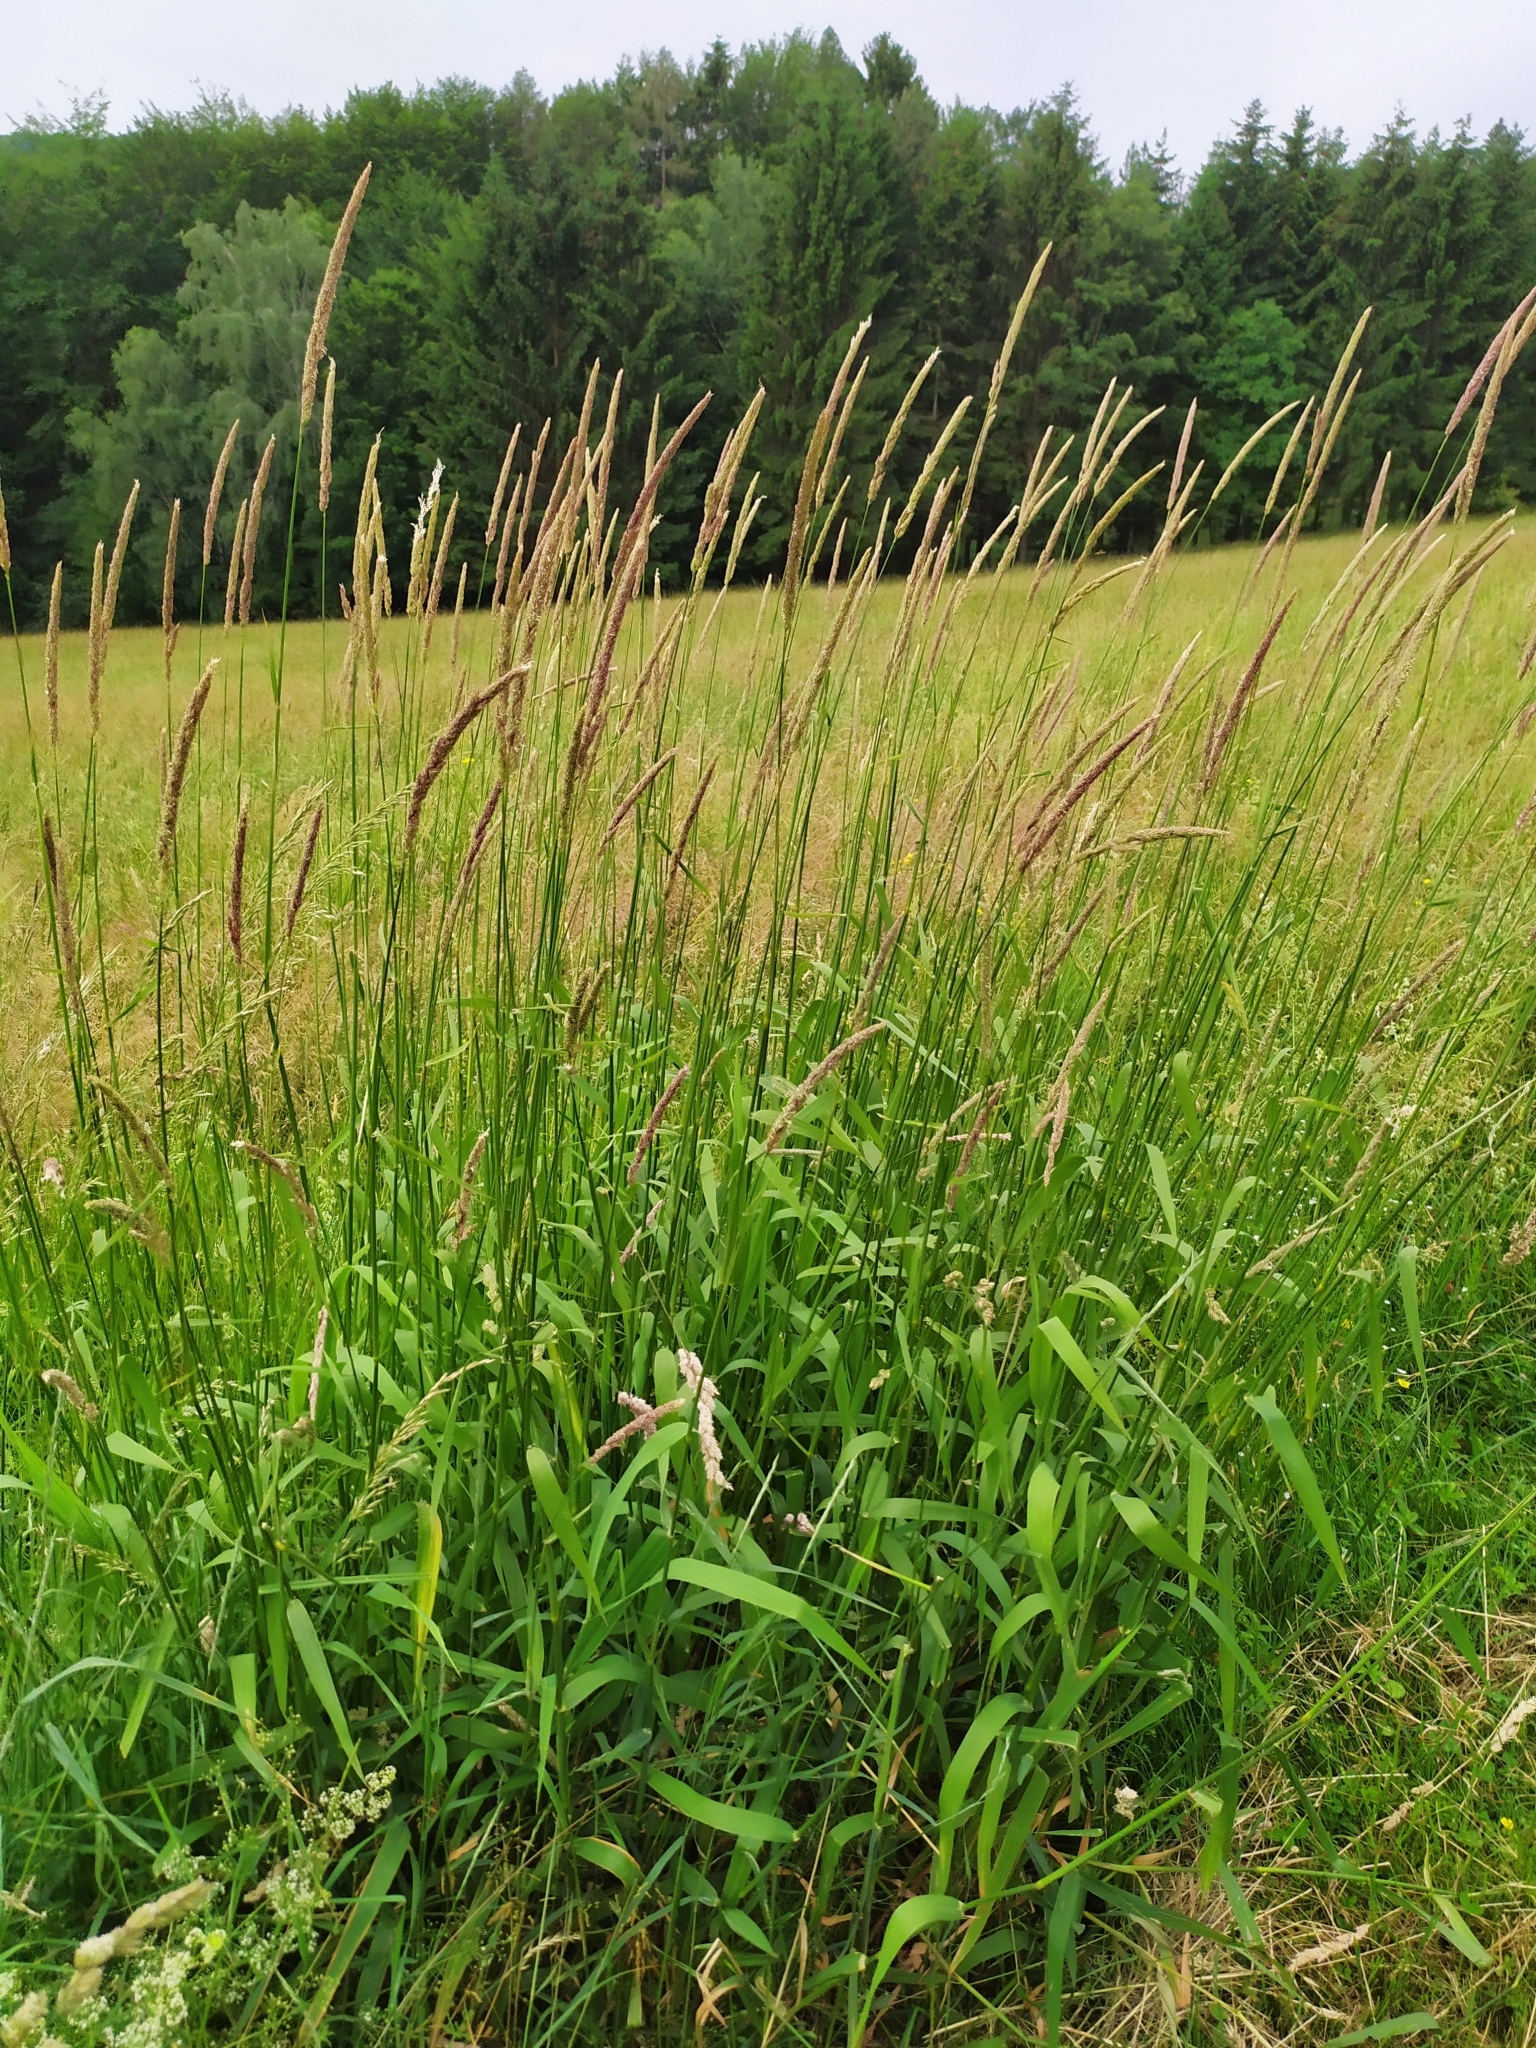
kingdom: Plantae
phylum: Tracheophyta
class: Liliopsida
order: Poales
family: Poaceae
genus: Phalaris
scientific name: Phalaris arundinacea
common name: Reed canary-grass
